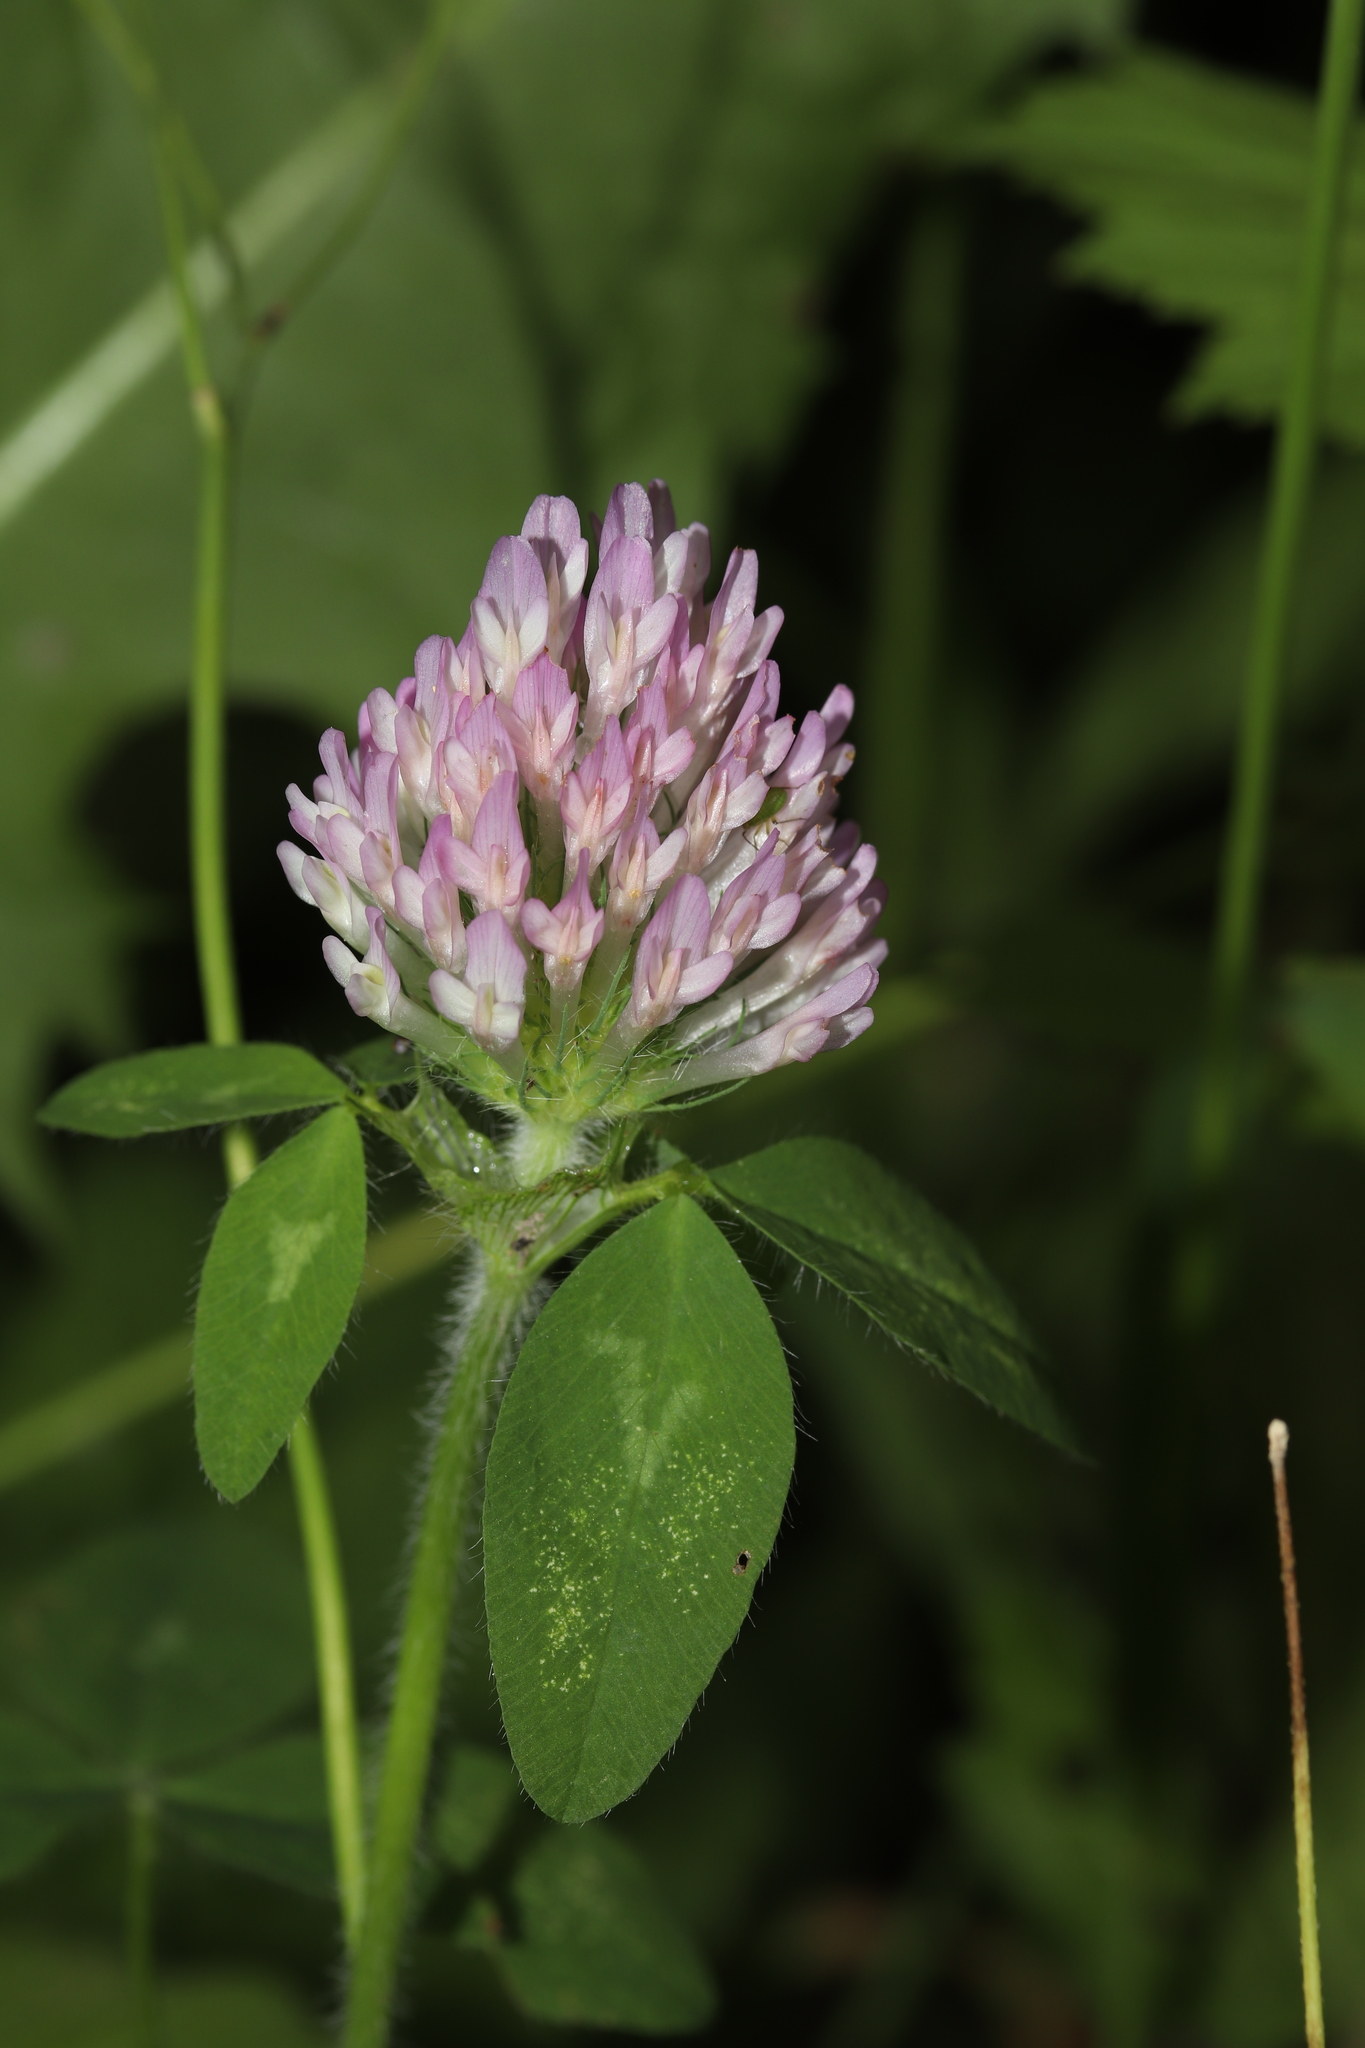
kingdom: Plantae
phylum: Tracheophyta
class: Magnoliopsida
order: Fabales
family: Fabaceae
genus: Trifolium
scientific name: Trifolium pratense
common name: Red clover
